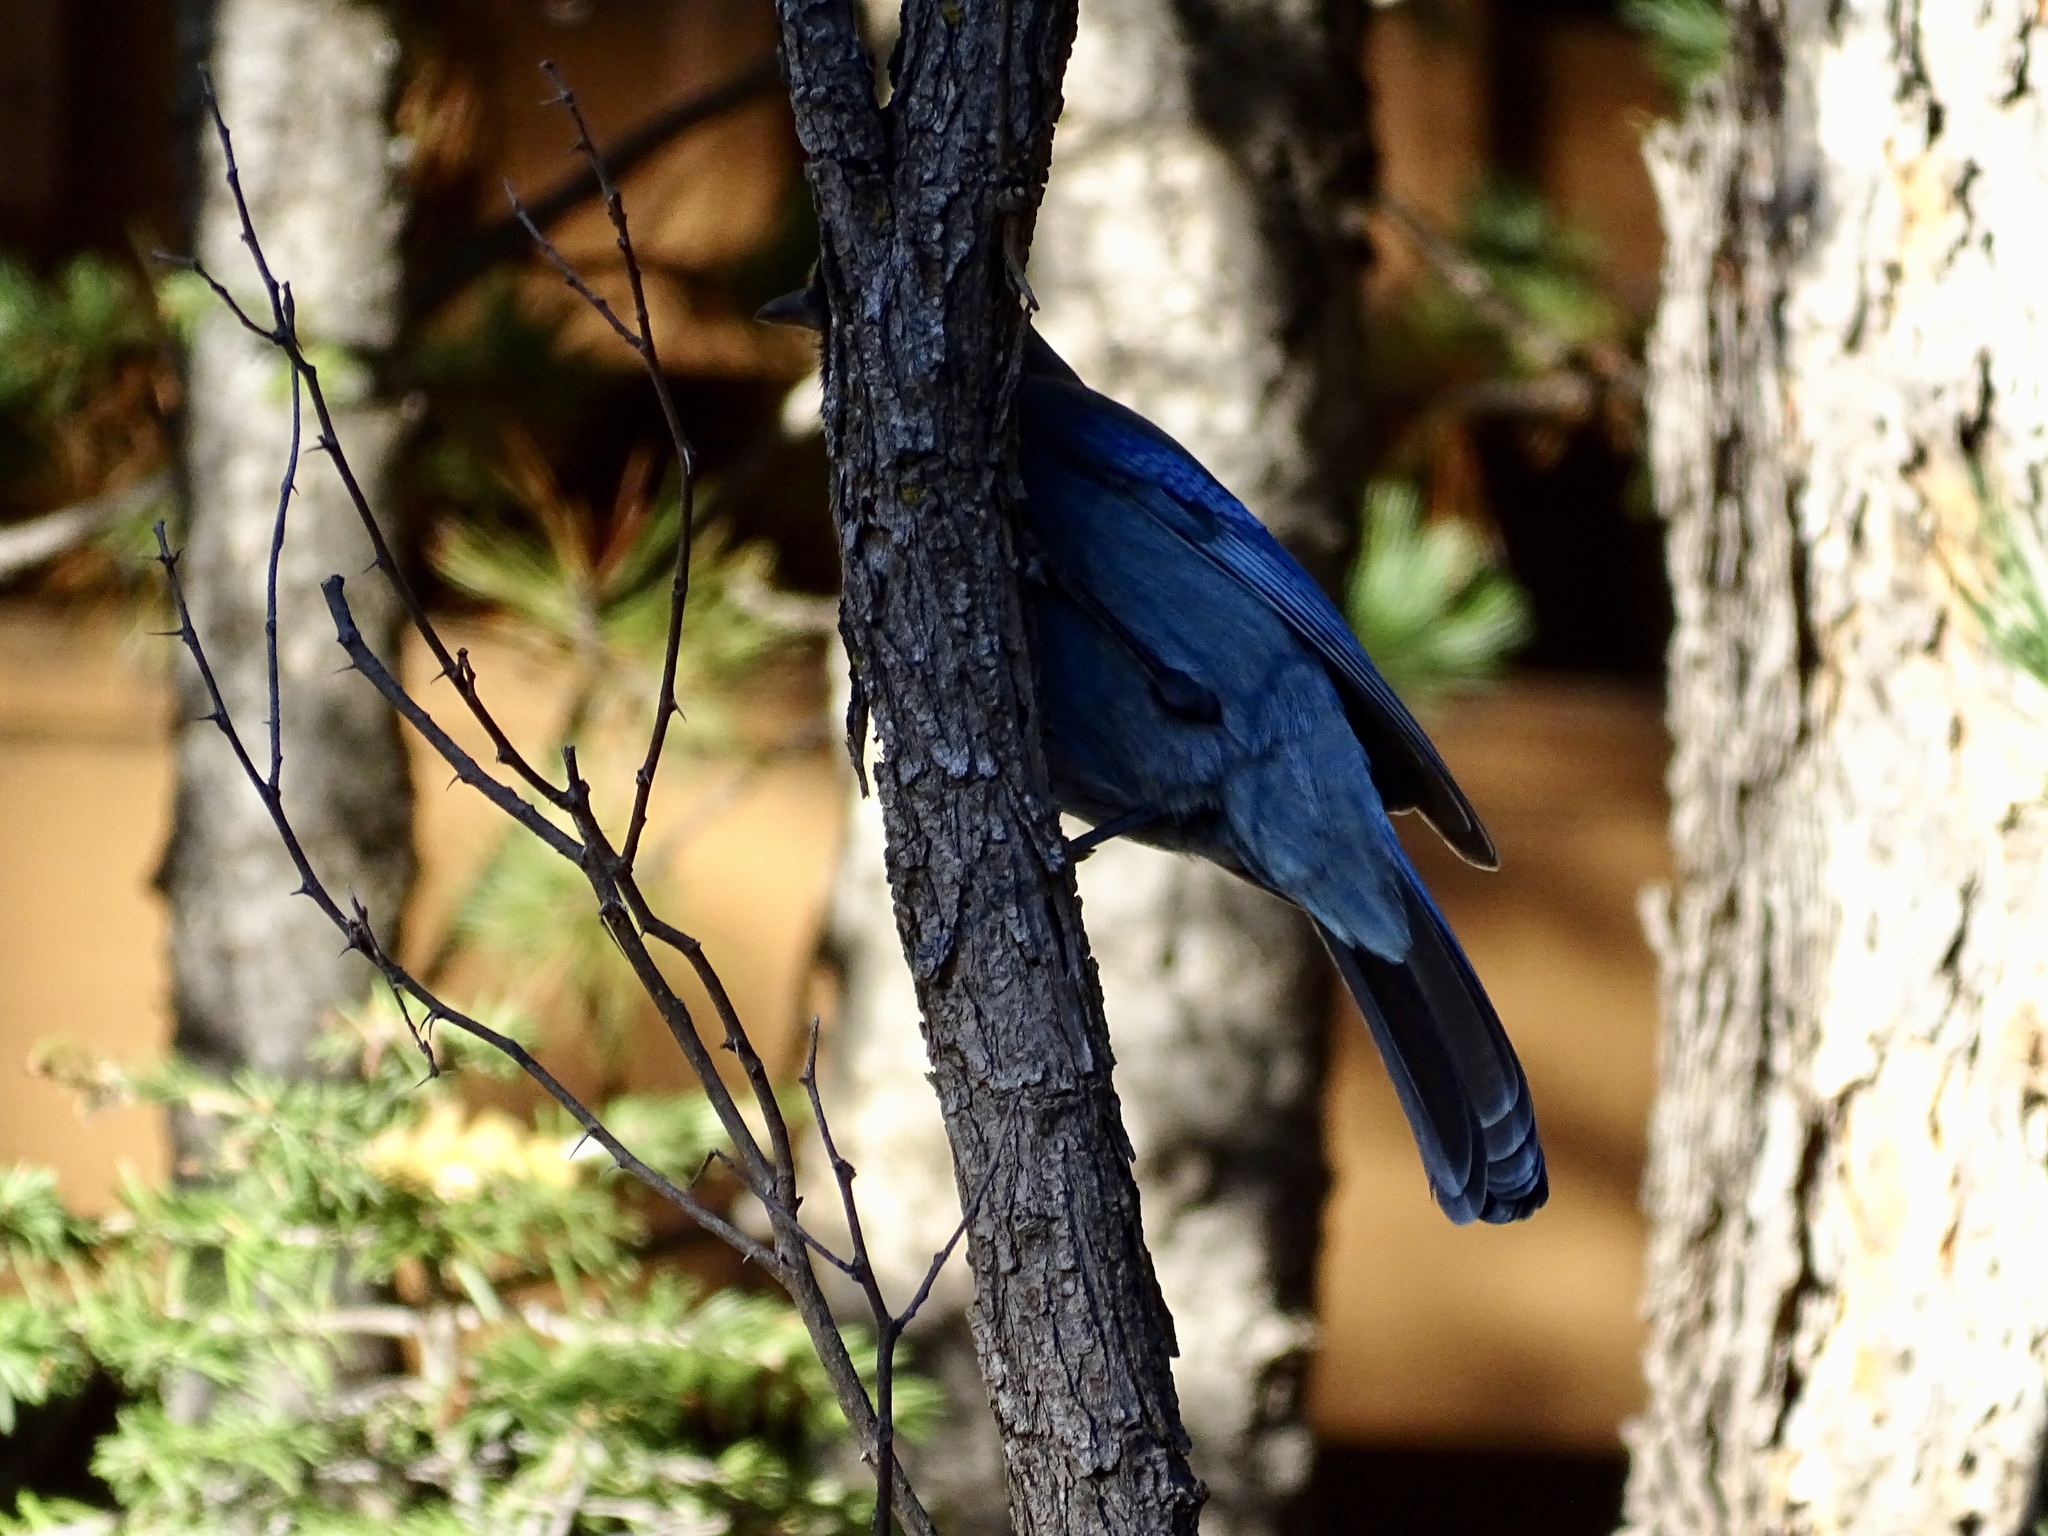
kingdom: Animalia
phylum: Chordata
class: Aves
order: Passeriformes
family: Corvidae
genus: Cyanocitta
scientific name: Cyanocitta stelleri
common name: Steller's jay
